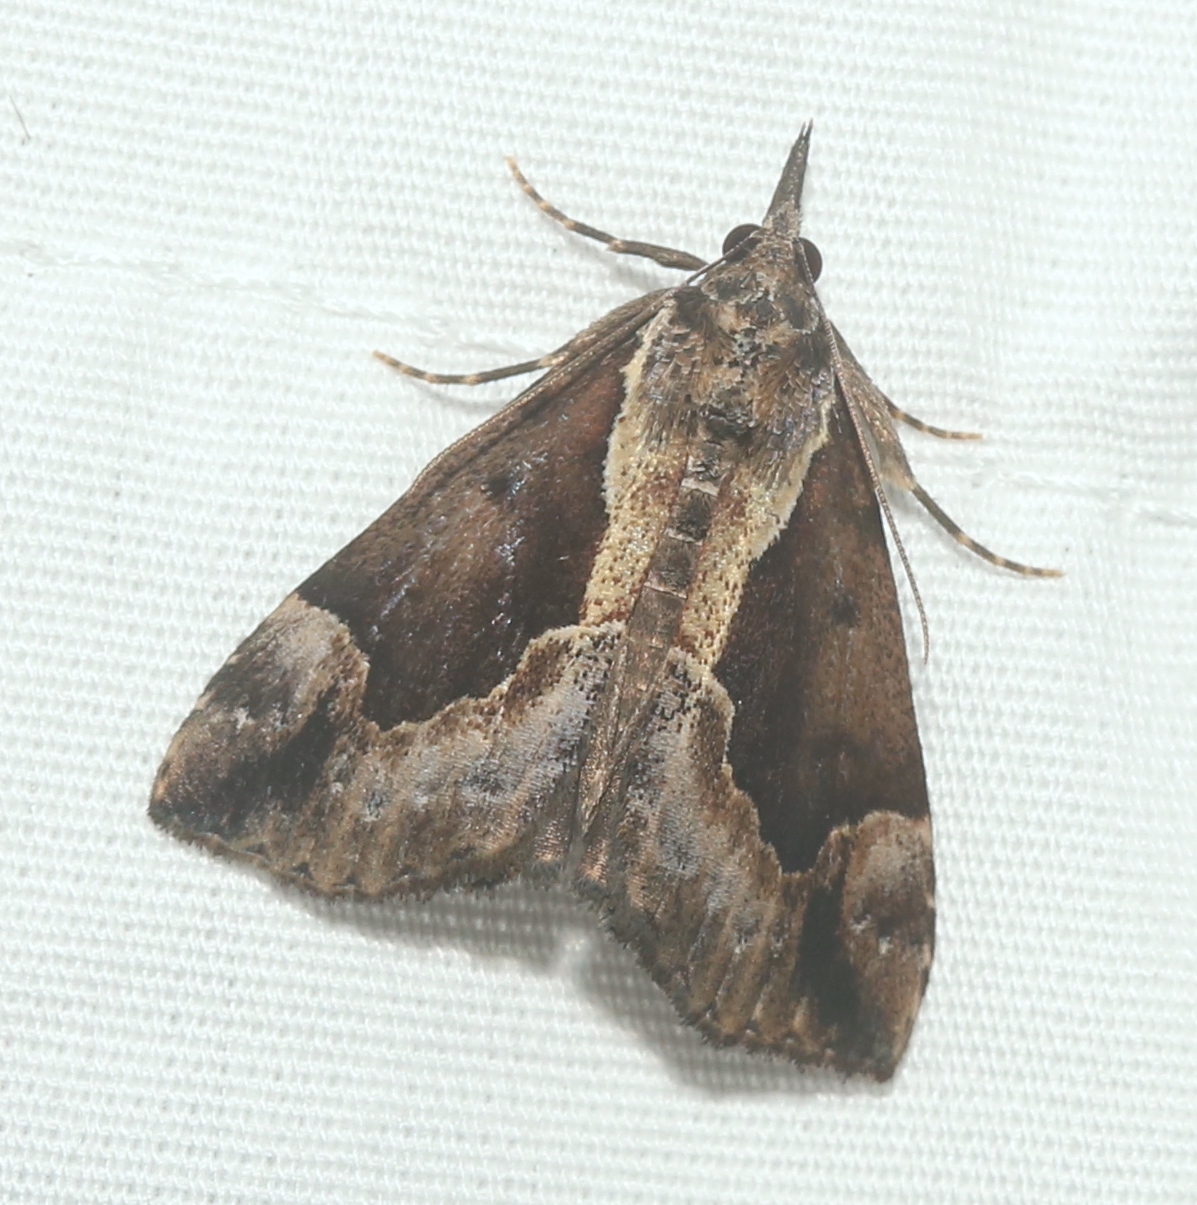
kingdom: Animalia
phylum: Arthropoda
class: Insecta
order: Lepidoptera
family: Erebidae
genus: Hypena
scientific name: Hypena baltimoralis
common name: Baltimore snout
